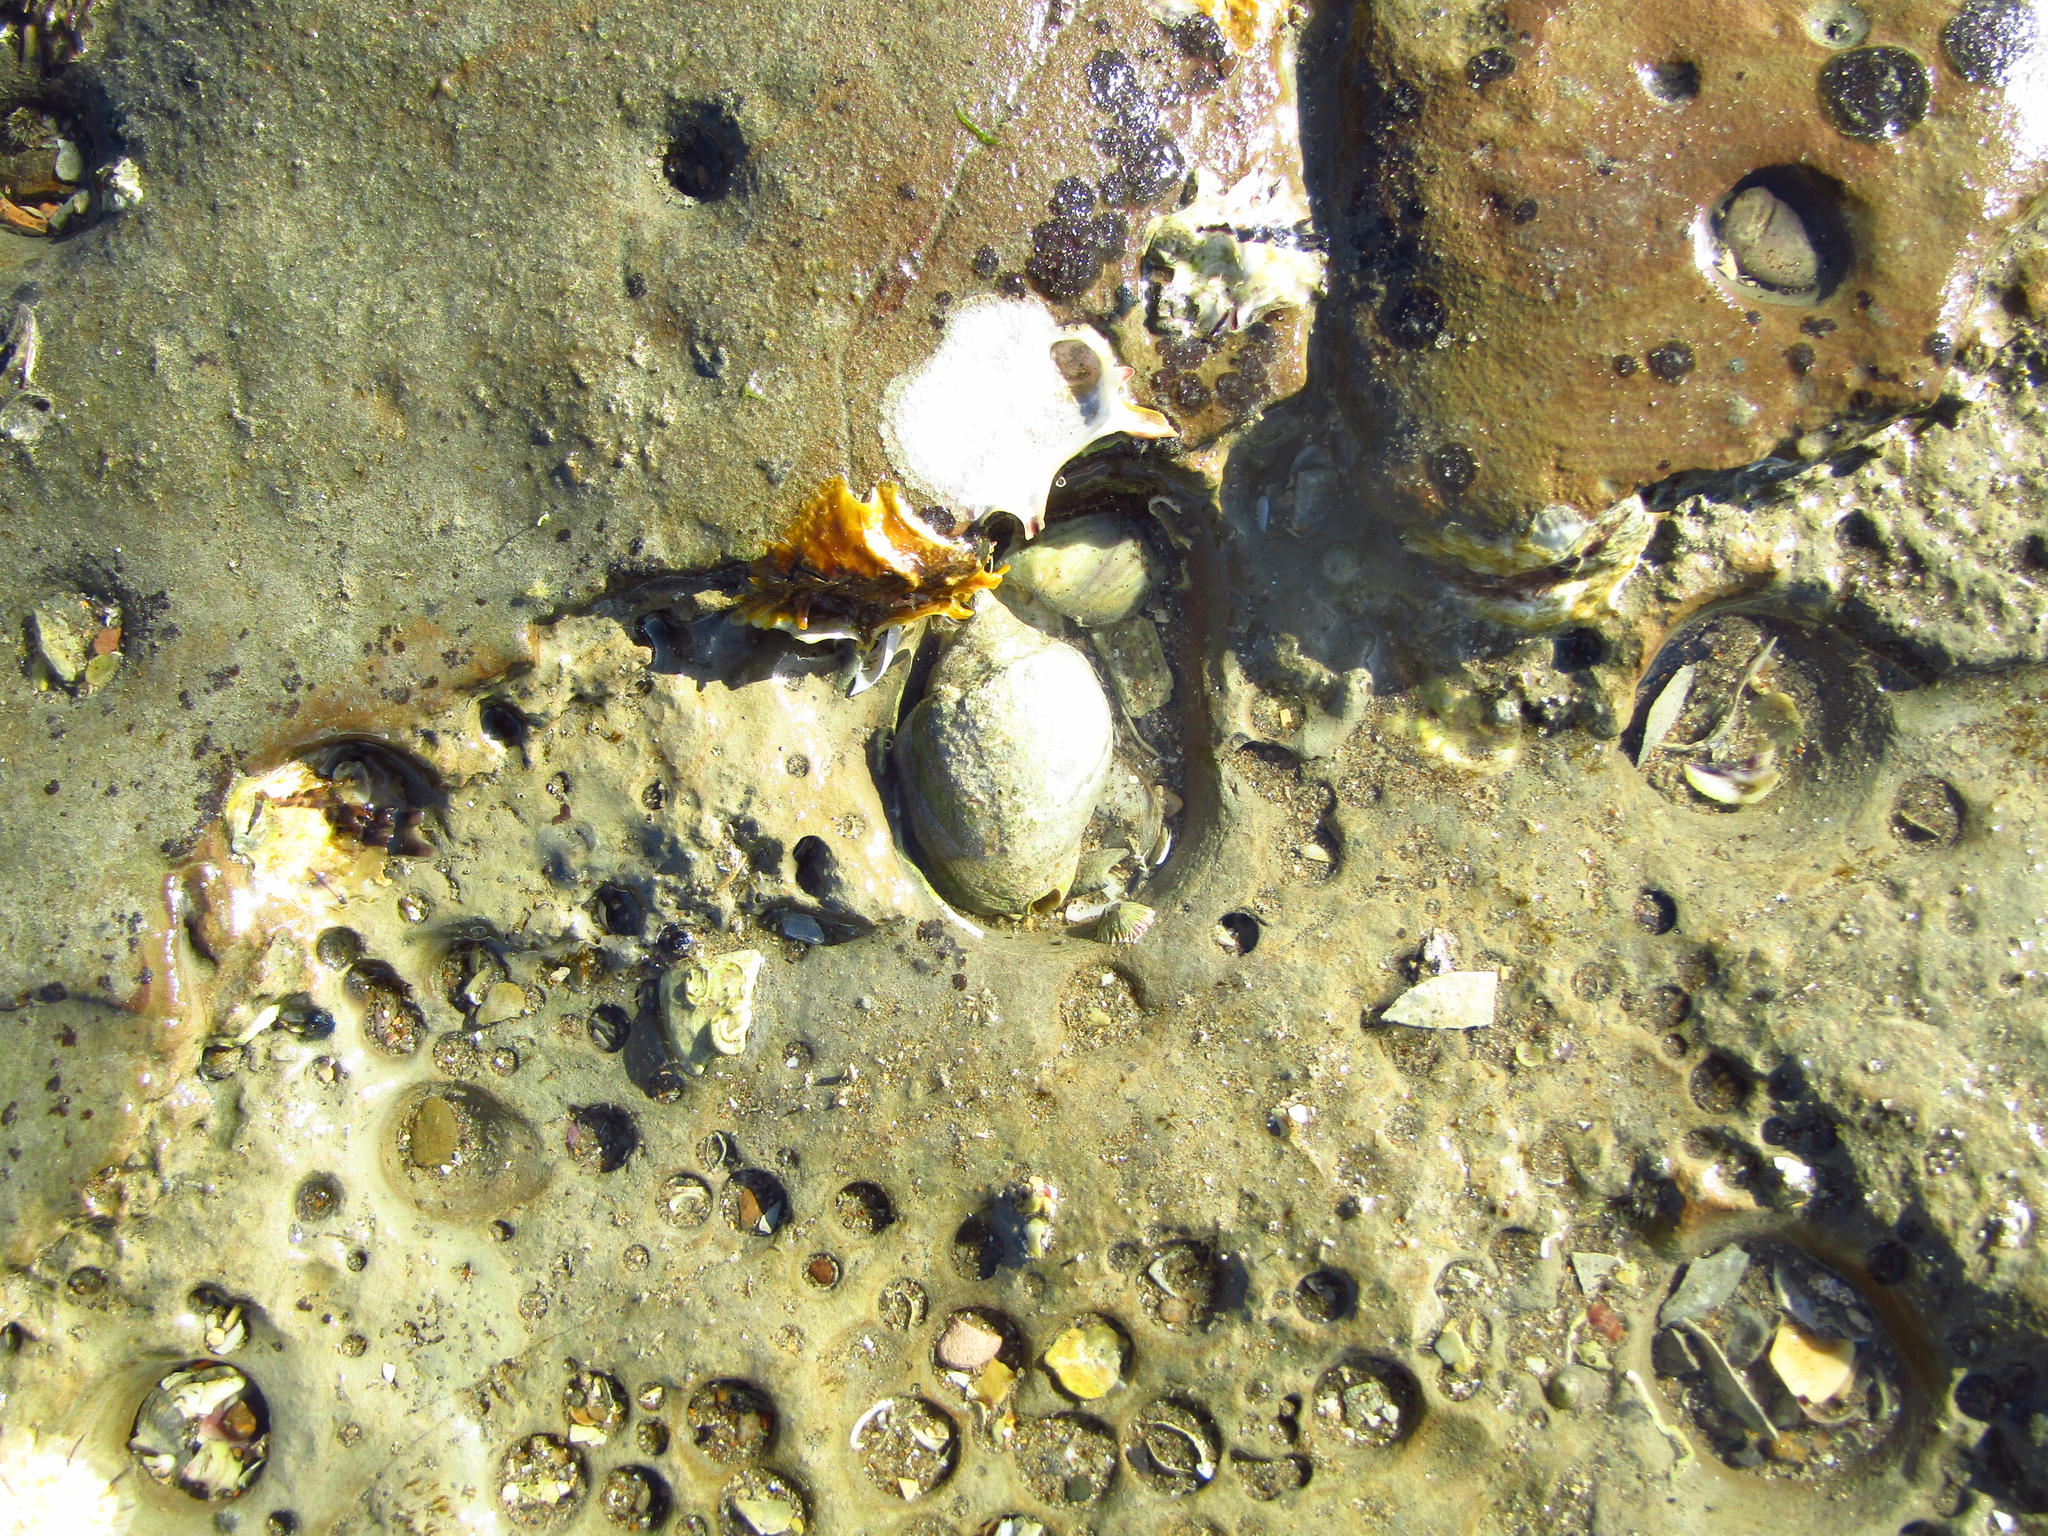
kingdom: Animalia
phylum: Mollusca
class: Gastropoda
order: Neogastropoda
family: Cominellidae
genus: Cominella
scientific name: Cominella adspersa
